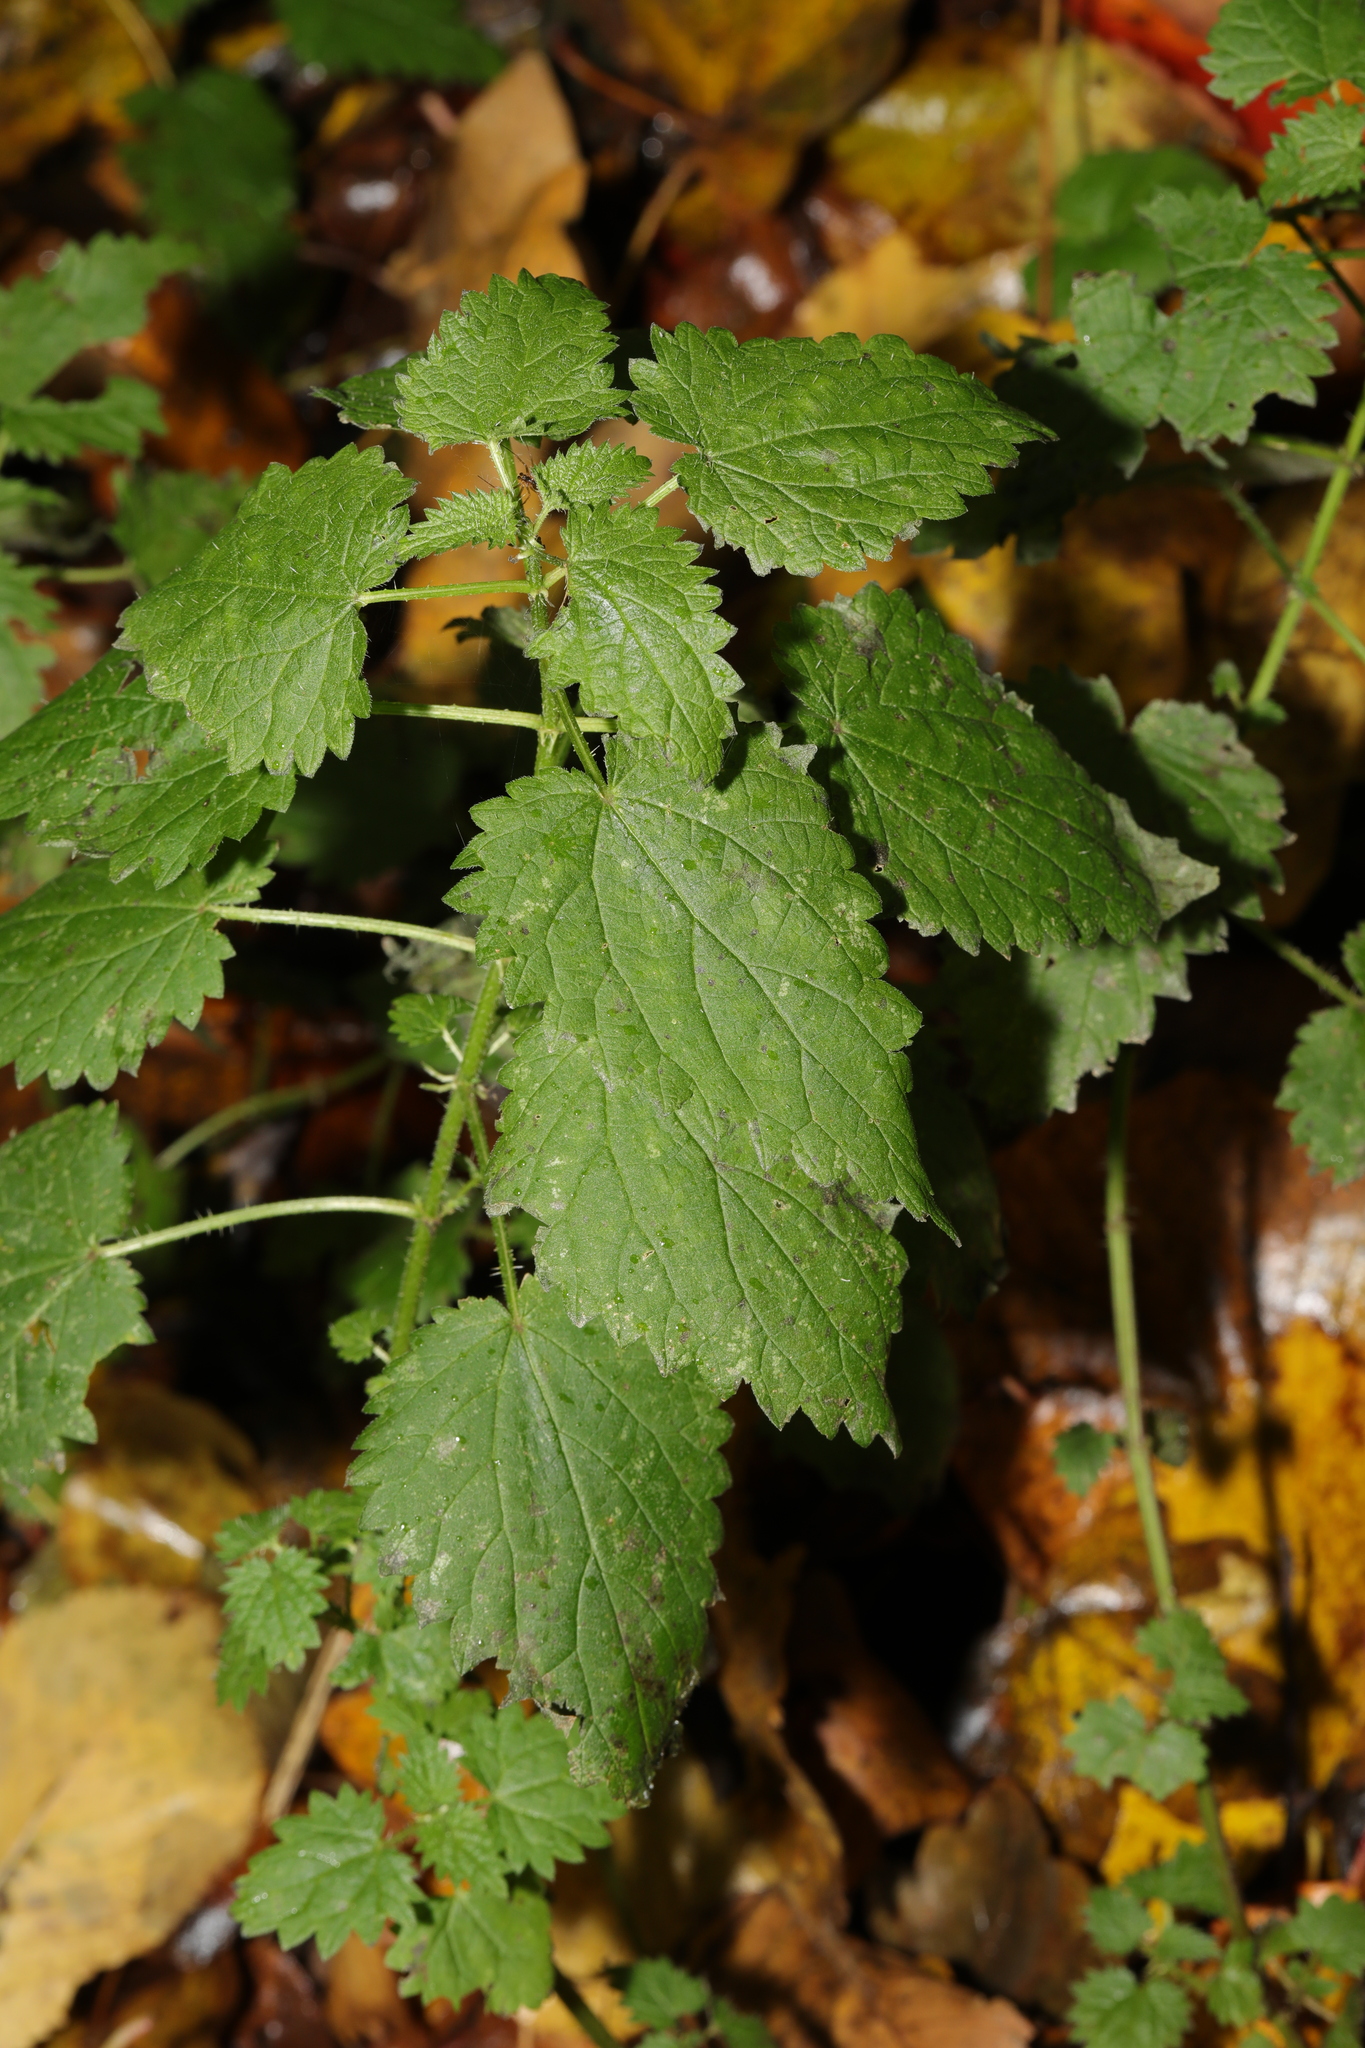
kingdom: Plantae
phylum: Tracheophyta
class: Magnoliopsida
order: Rosales
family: Urticaceae
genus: Urtica
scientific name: Urtica dioica
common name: Common nettle
